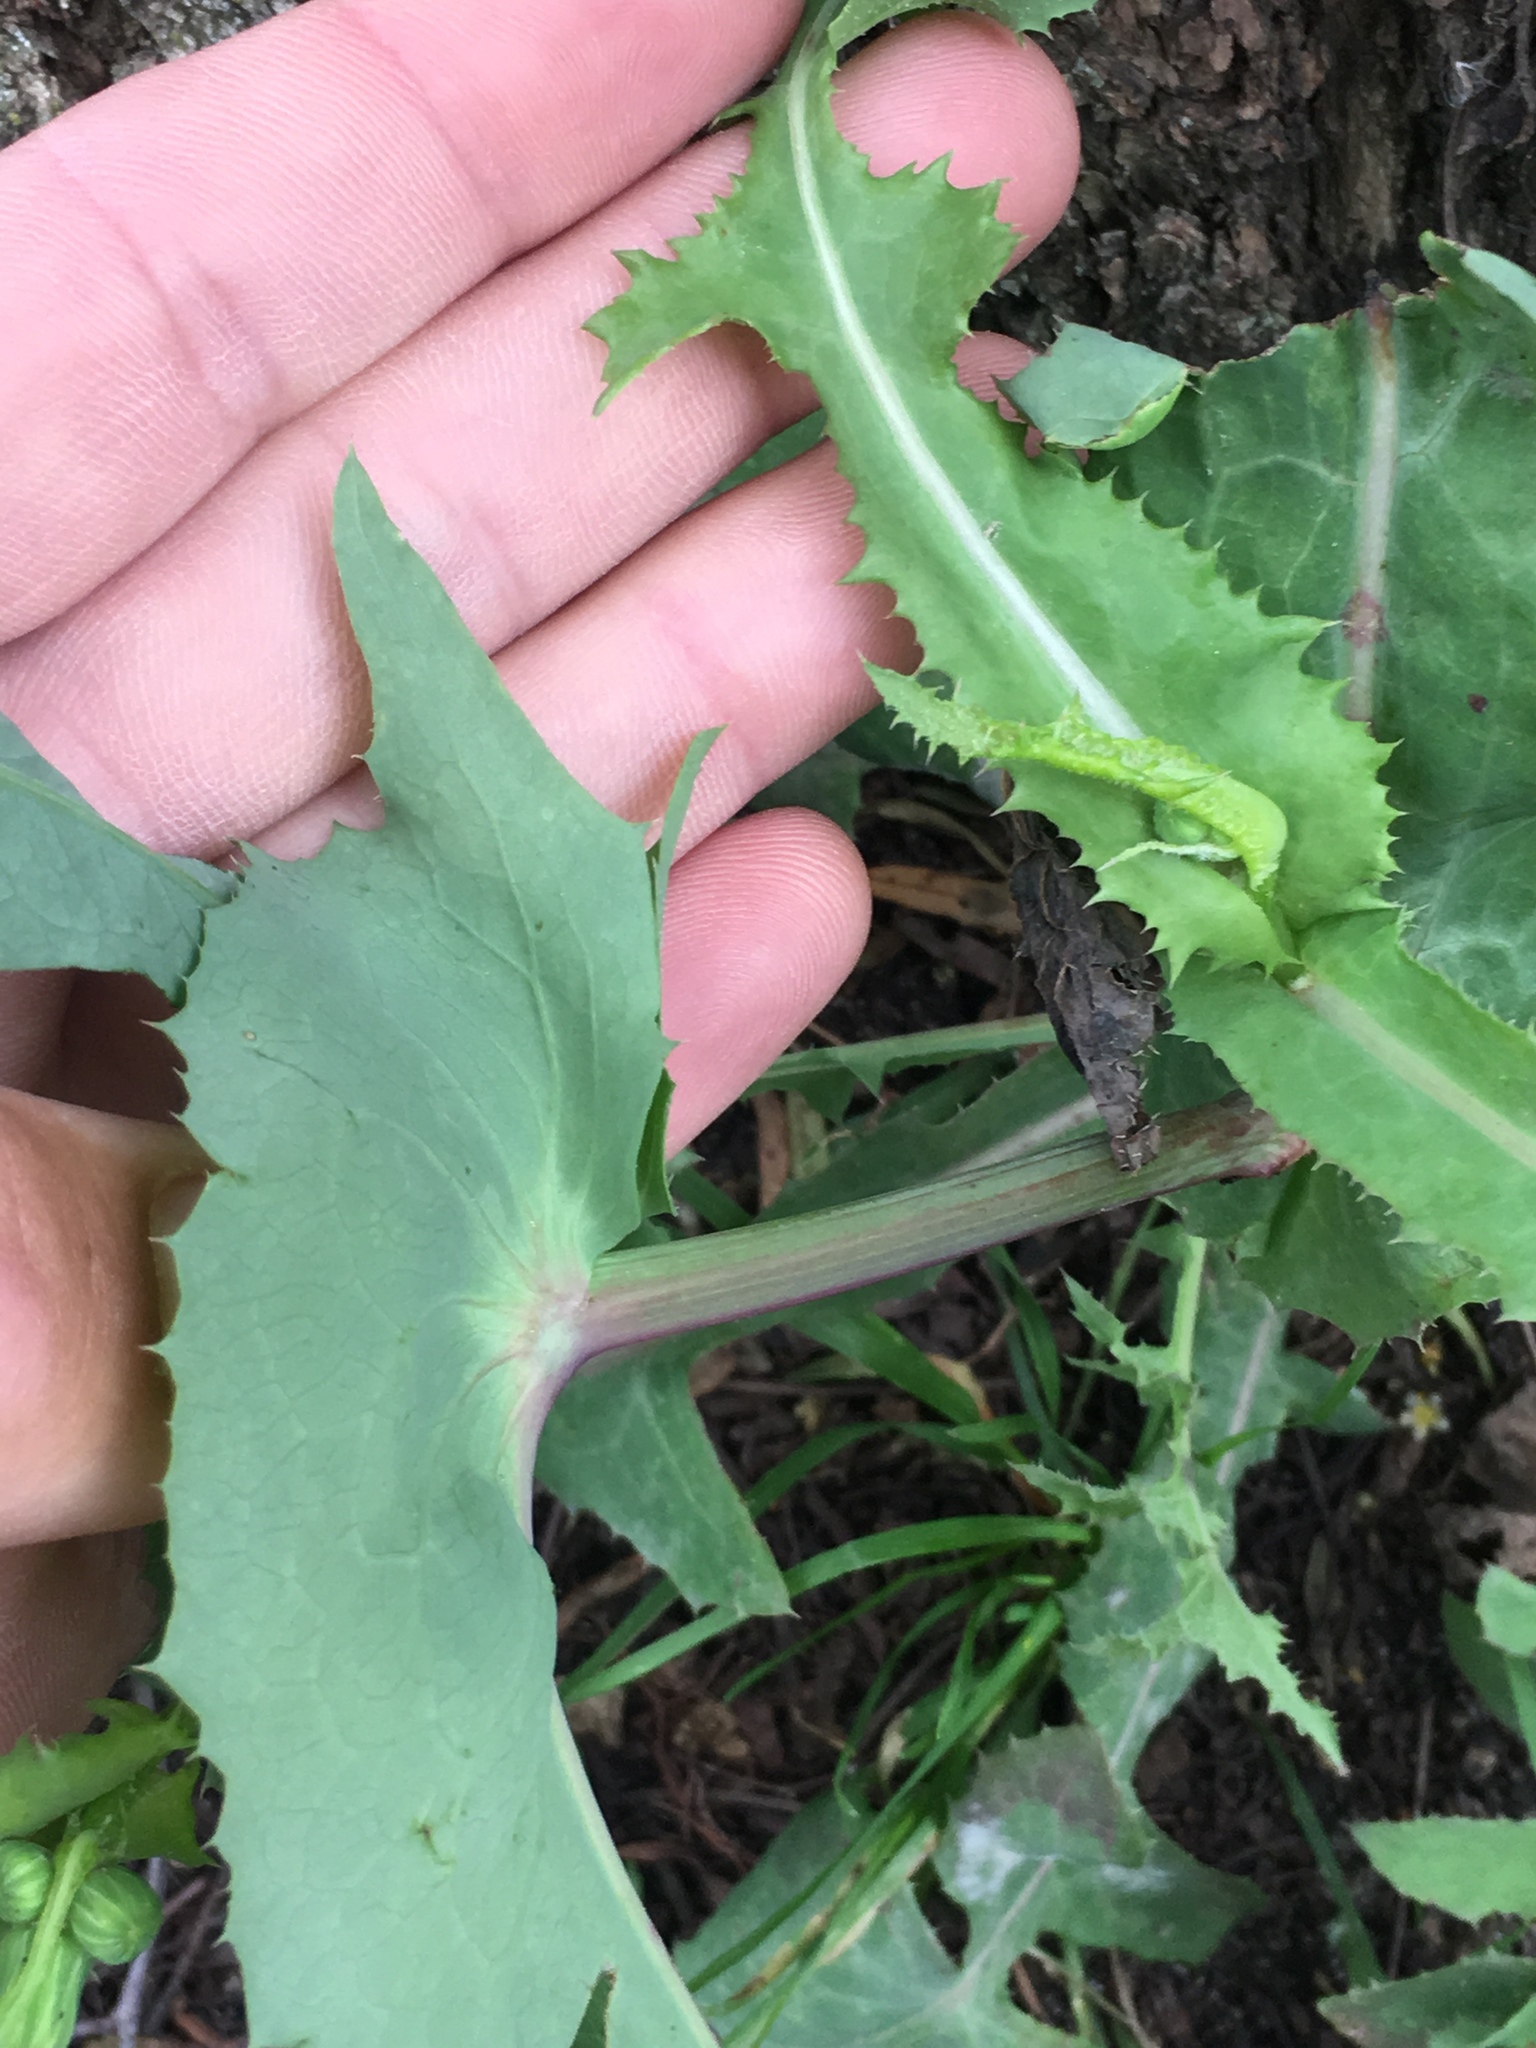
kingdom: Plantae
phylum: Tracheophyta
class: Magnoliopsida
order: Asterales
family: Asteraceae
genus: Sonchus
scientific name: Sonchus oleraceus
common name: Common sowthistle
